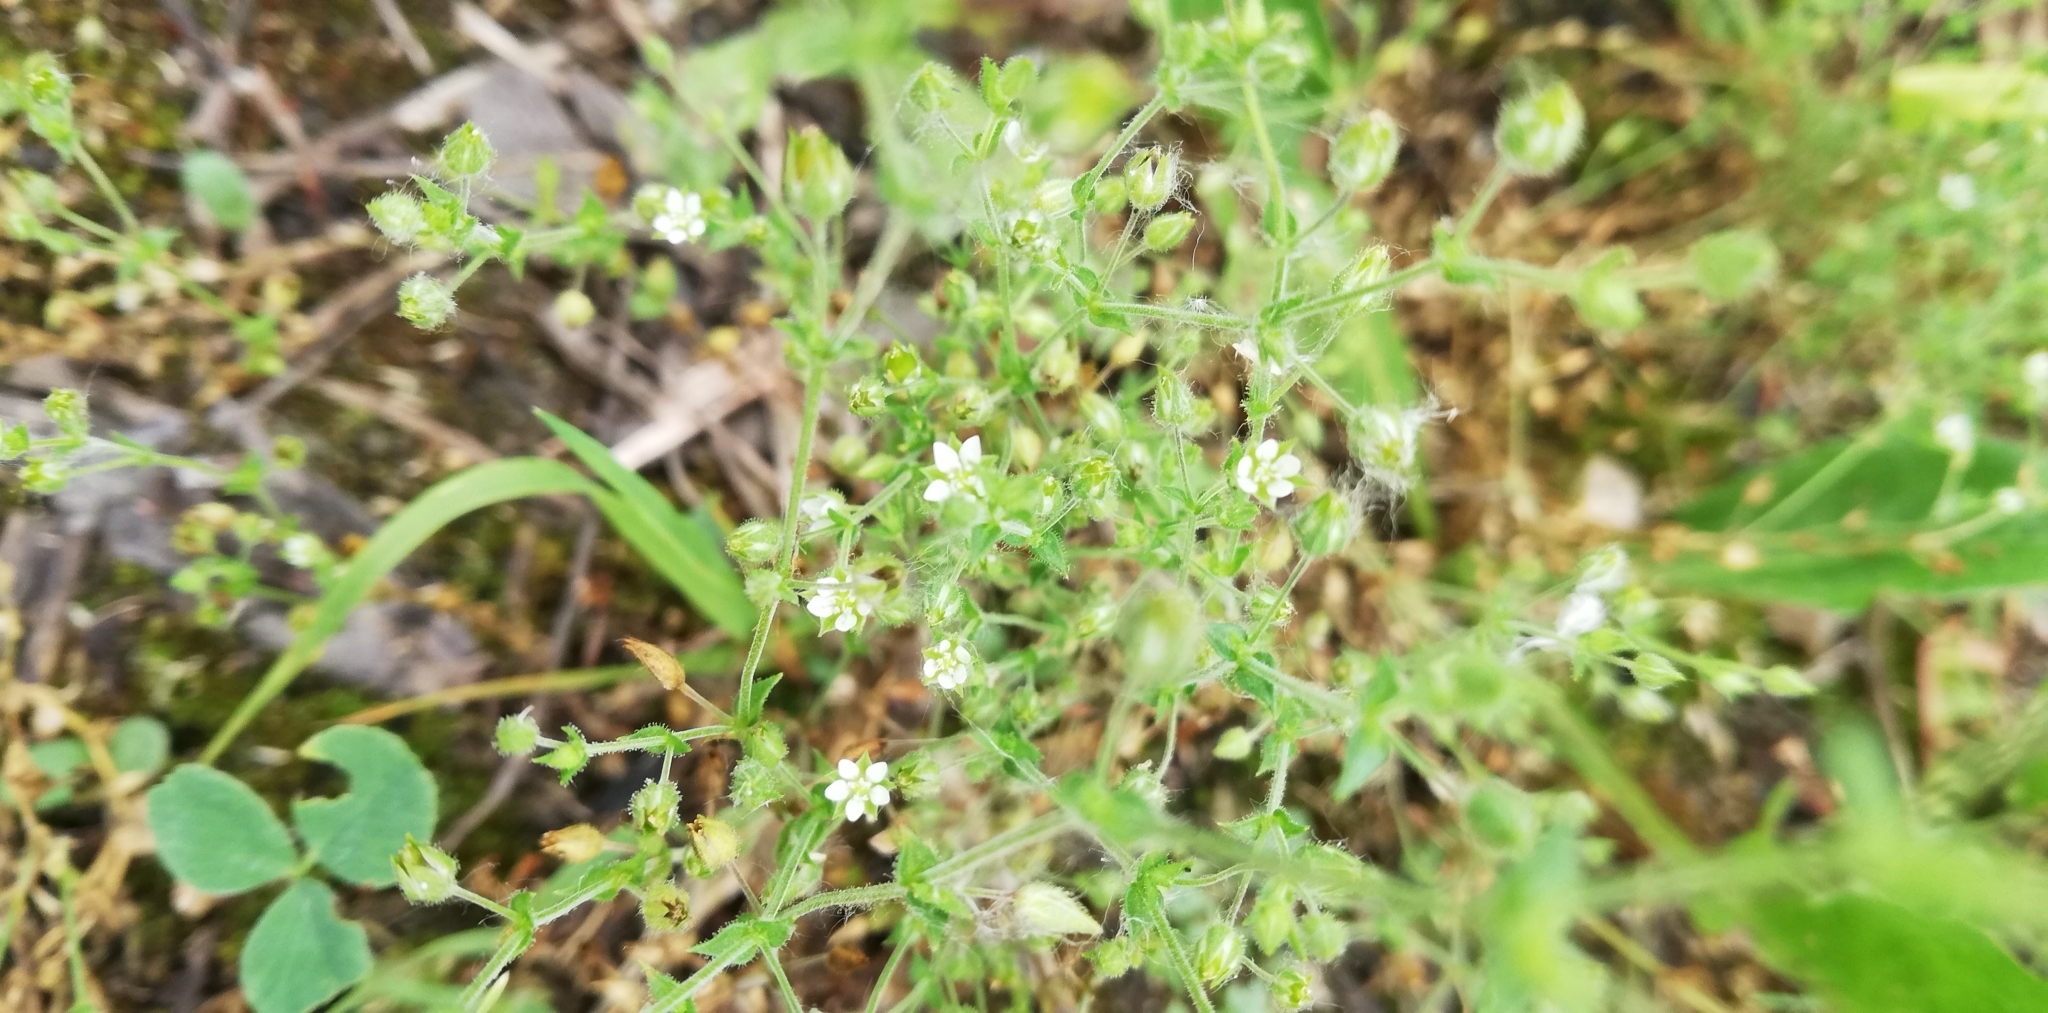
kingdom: Plantae
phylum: Tracheophyta
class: Magnoliopsida
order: Caryophyllales
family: Caryophyllaceae
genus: Arenaria
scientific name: Arenaria serpyllifolia
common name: Thyme-leaved sandwort
